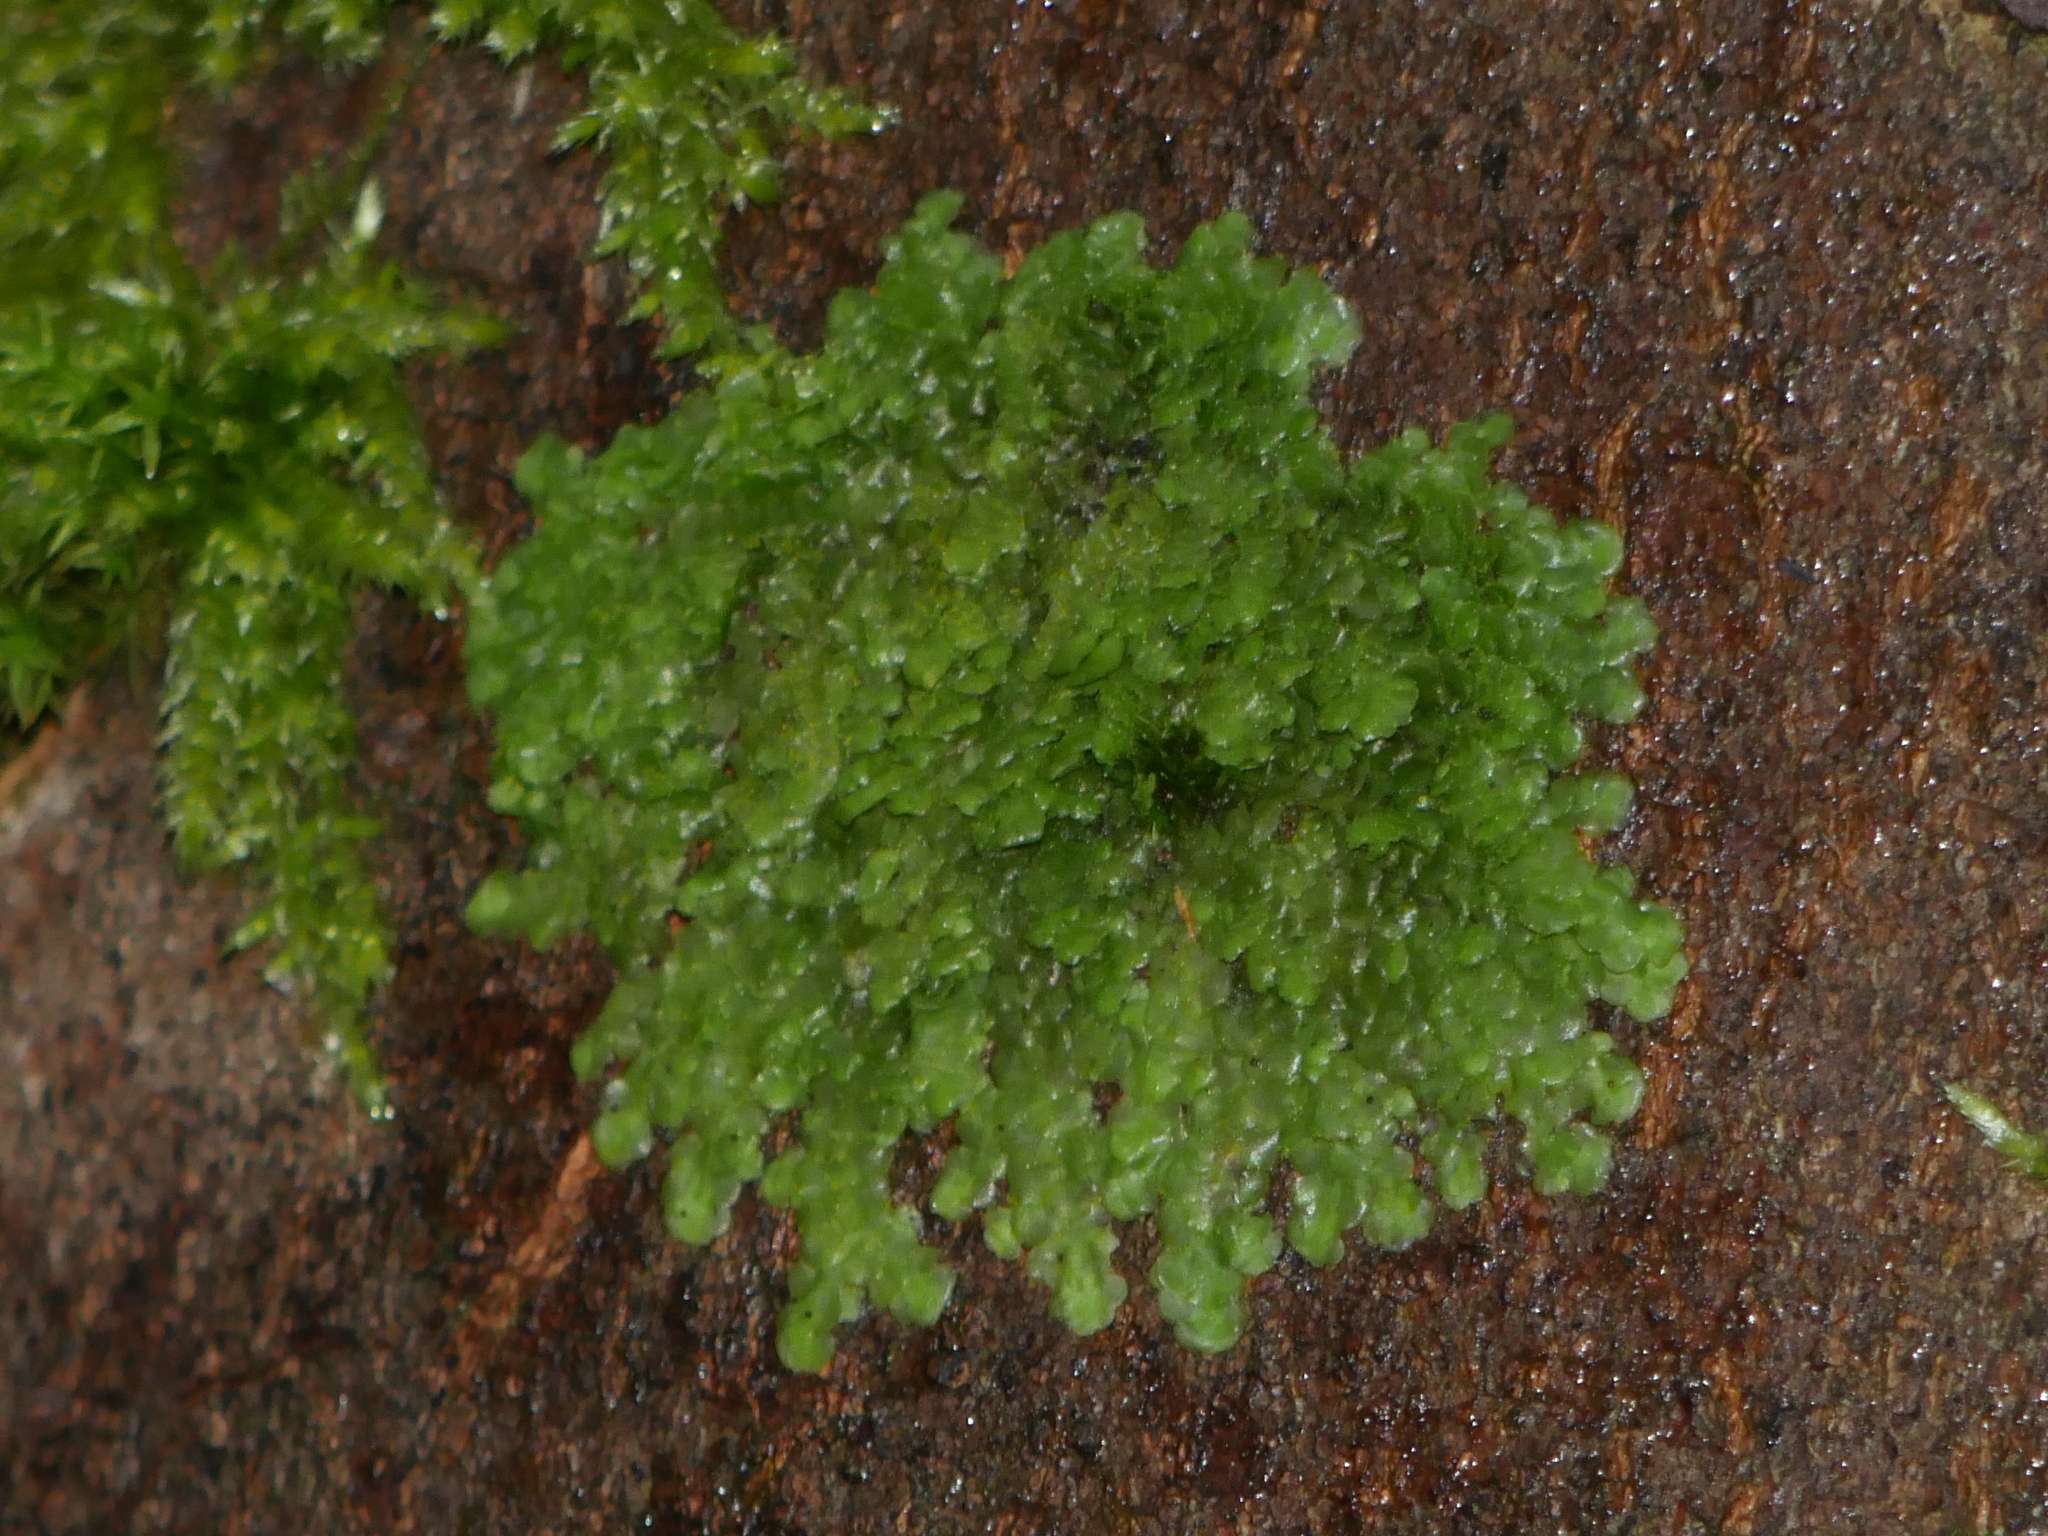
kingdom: Plantae
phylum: Marchantiophyta
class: Jungermanniopsida
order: Porellales
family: Radulaceae
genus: Radula
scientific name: Radula complanata
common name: Flat-leaved scalewort
